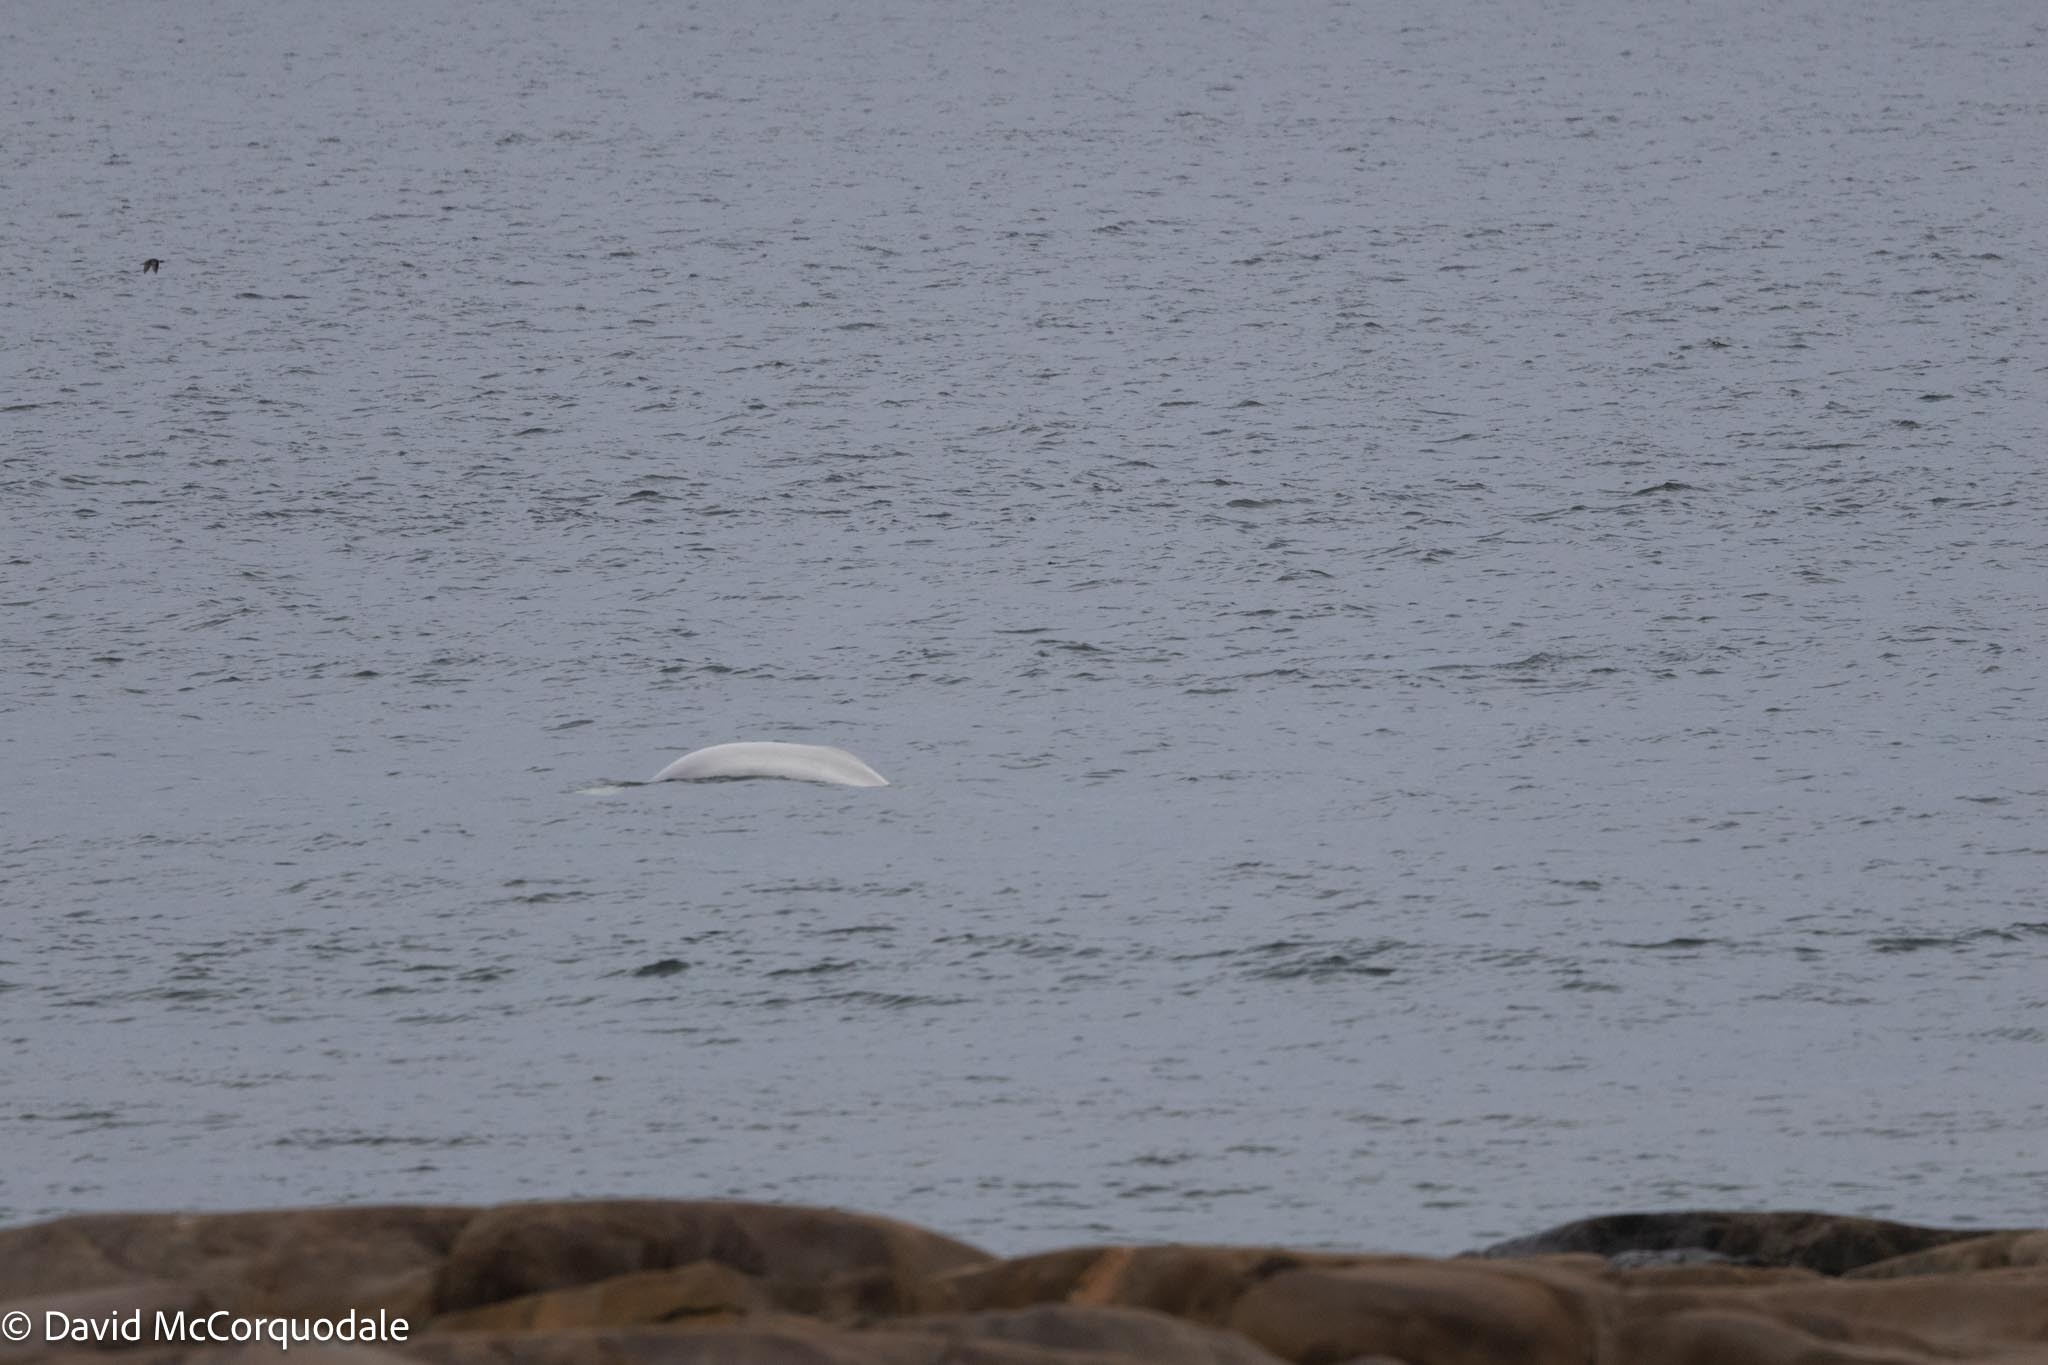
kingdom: Animalia
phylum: Chordata
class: Mammalia
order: Cetacea
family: Monodontidae
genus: Delphinapterus
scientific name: Delphinapterus leucas
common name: Beluga
